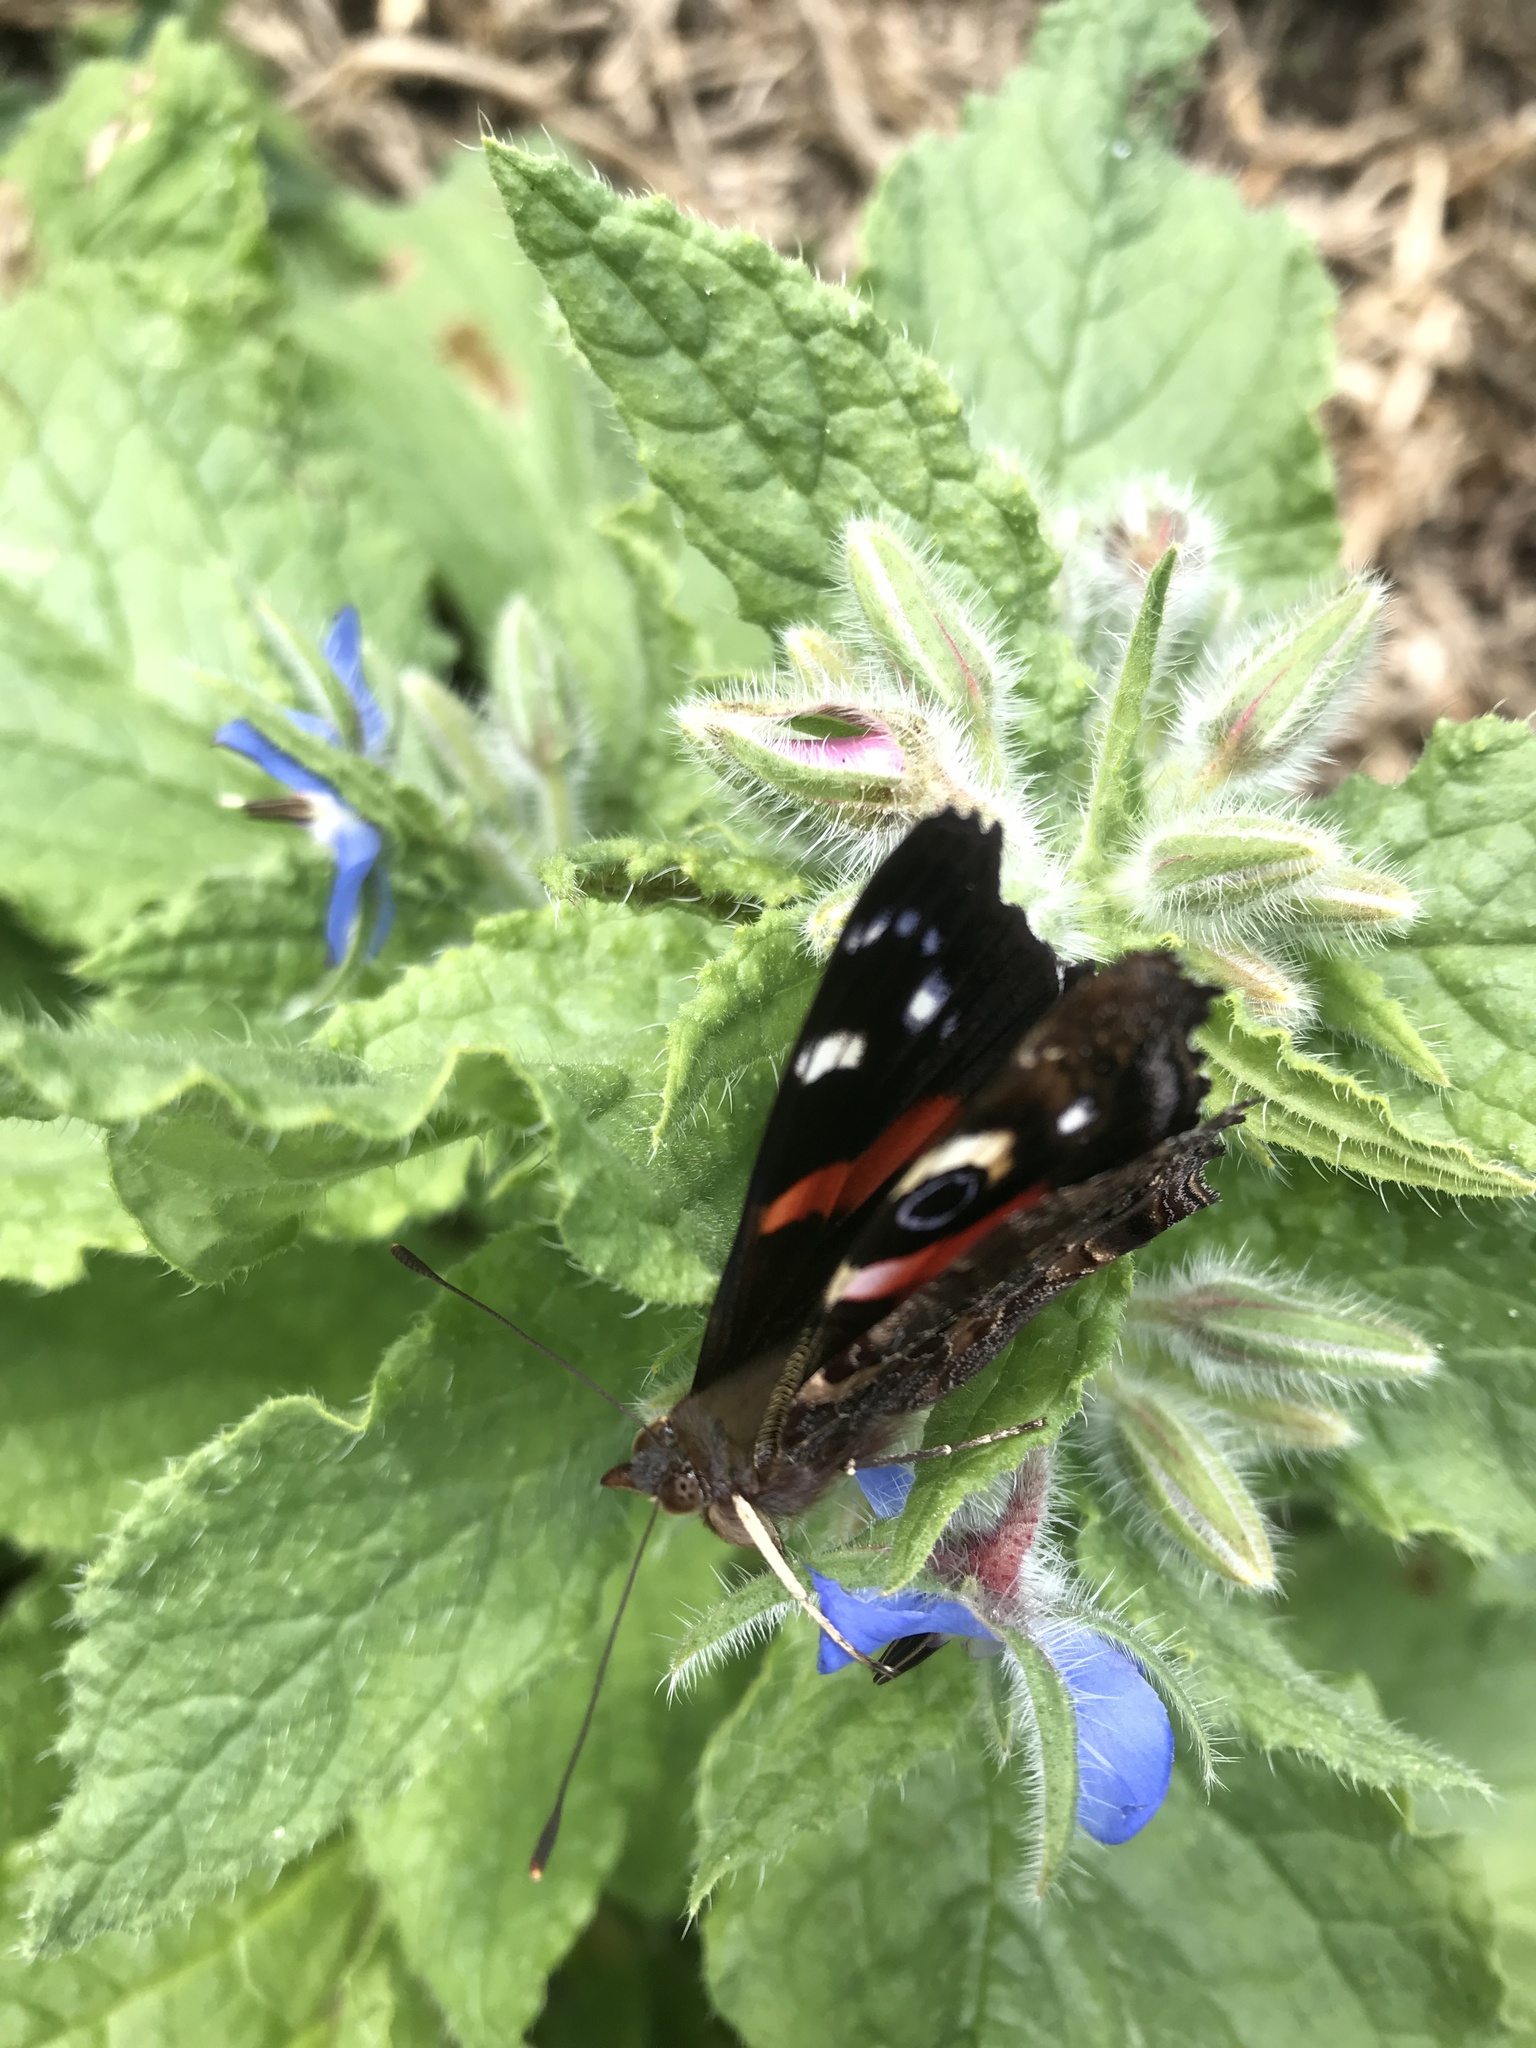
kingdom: Animalia
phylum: Arthropoda
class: Insecta
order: Lepidoptera
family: Nymphalidae
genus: Vanessa
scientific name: Vanessa gonerilla
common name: New zealand red admiral
